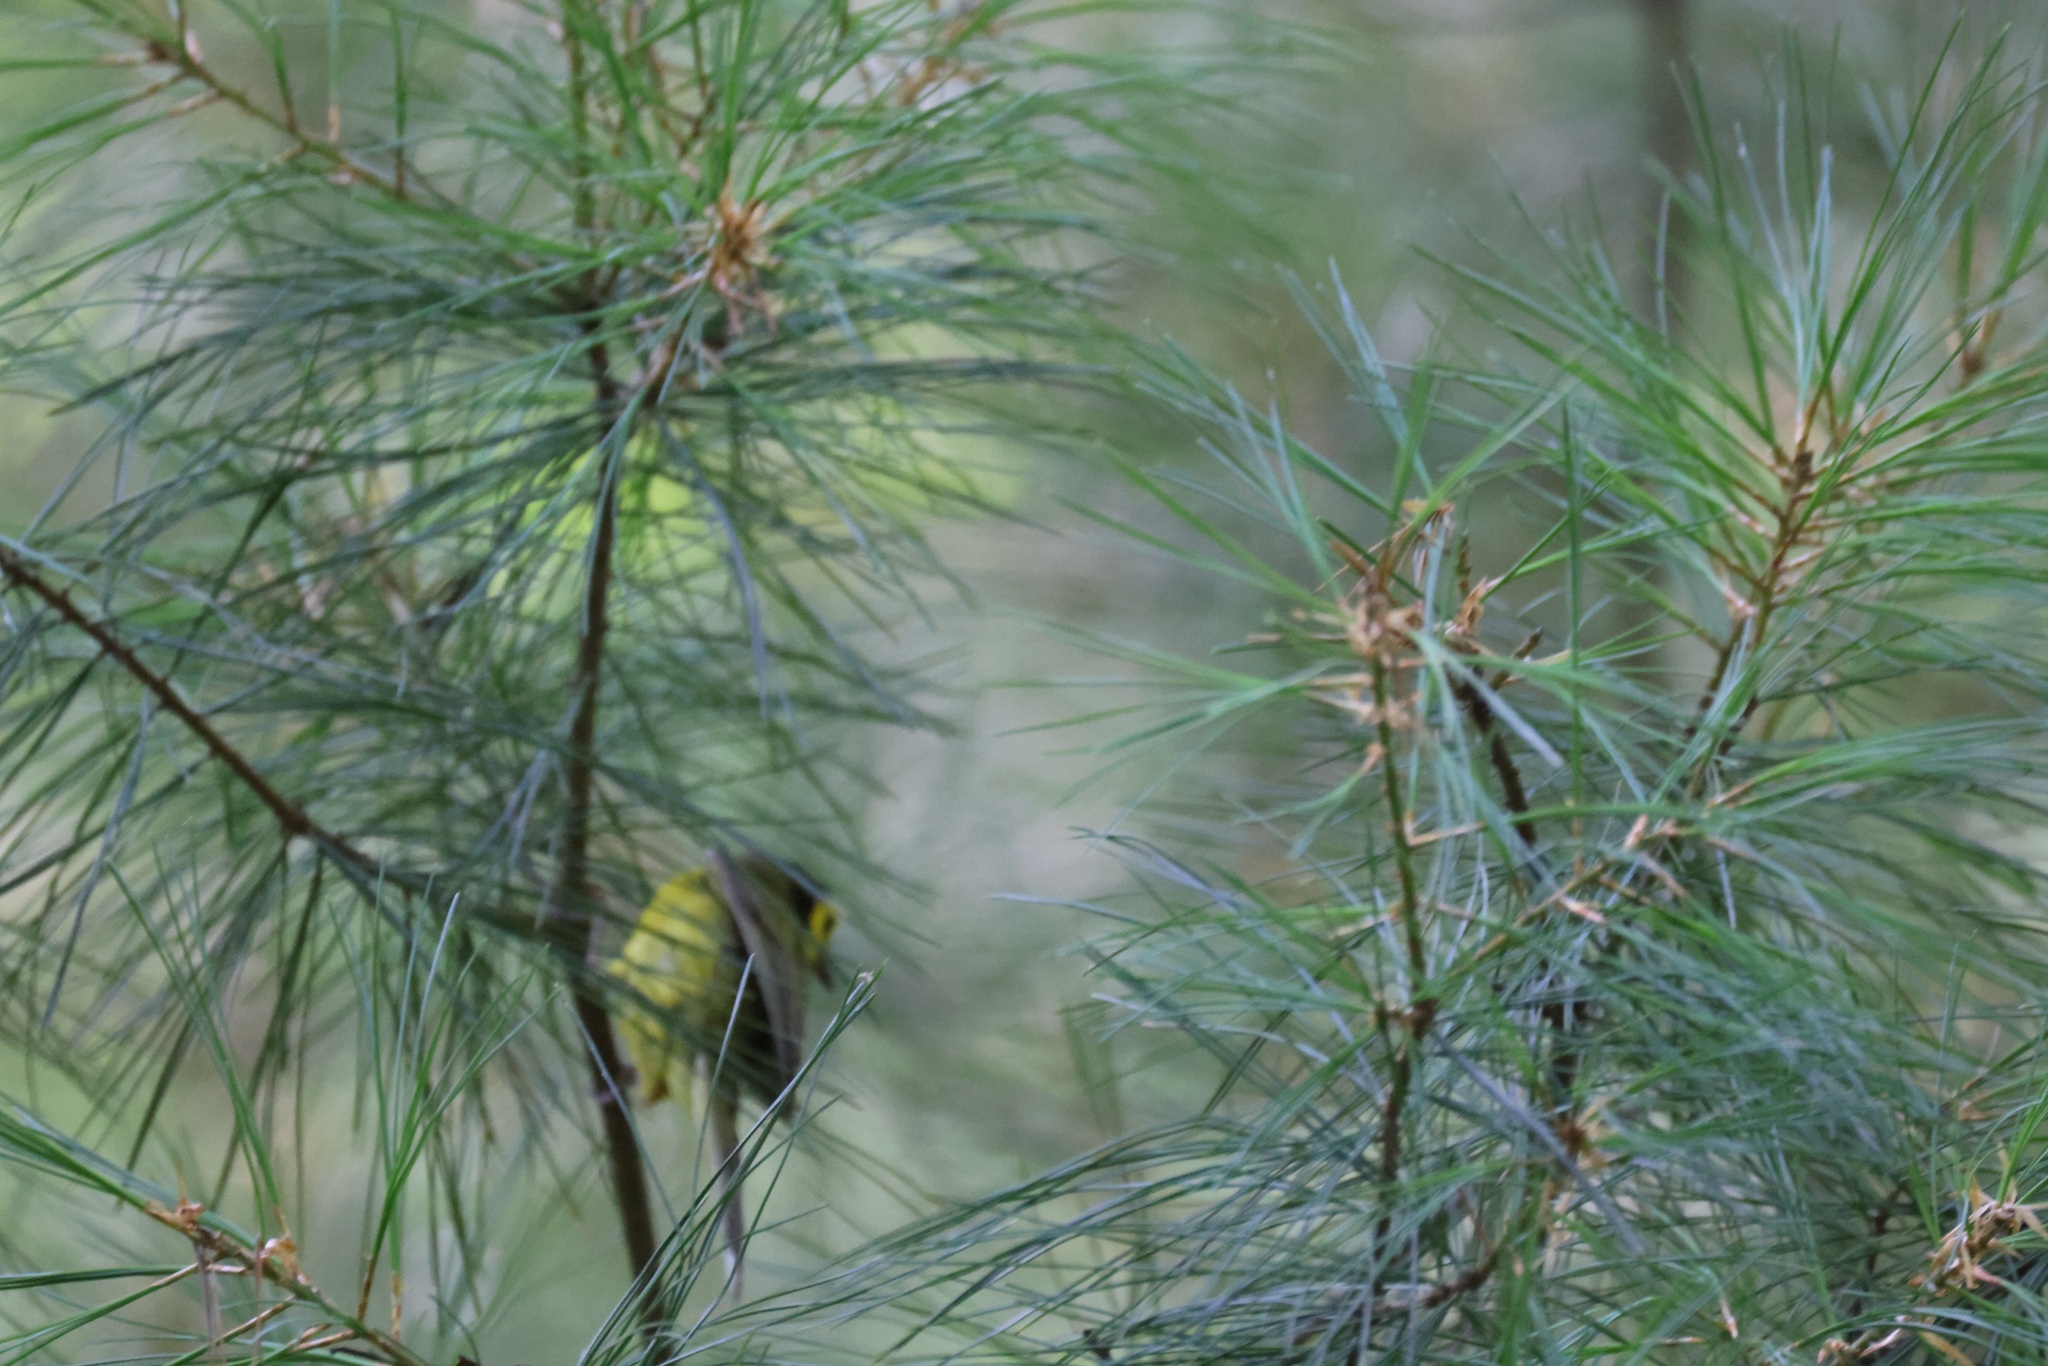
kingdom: Animalia
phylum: Chordata
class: Aves
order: Passeriformes
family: Parulidae
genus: Setophaga
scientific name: Setophaga citrina
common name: Hooded warbler
